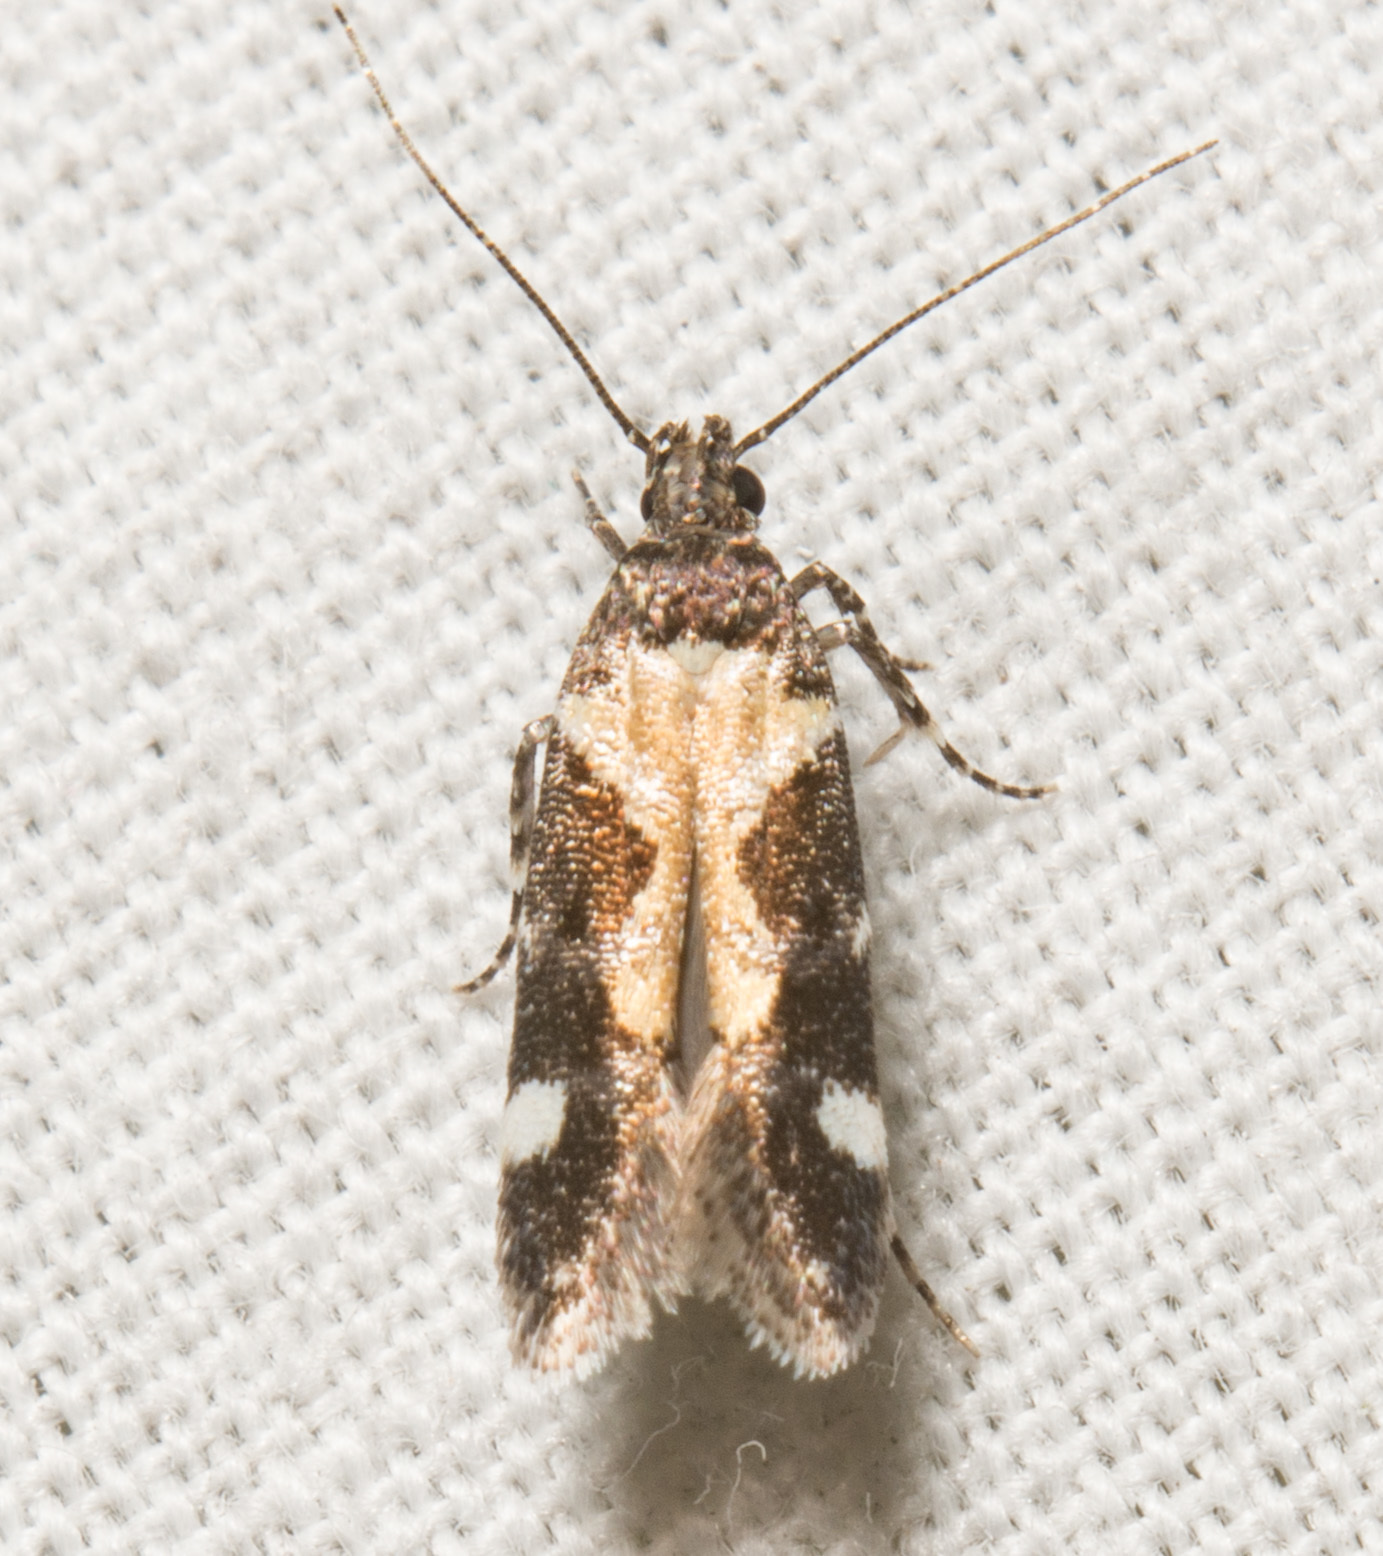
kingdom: Animalia
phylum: Arthropoda
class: Insecta
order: Lepidoptera
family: Gelechiidae
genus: Stegasta
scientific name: Stegasta bosqueella
